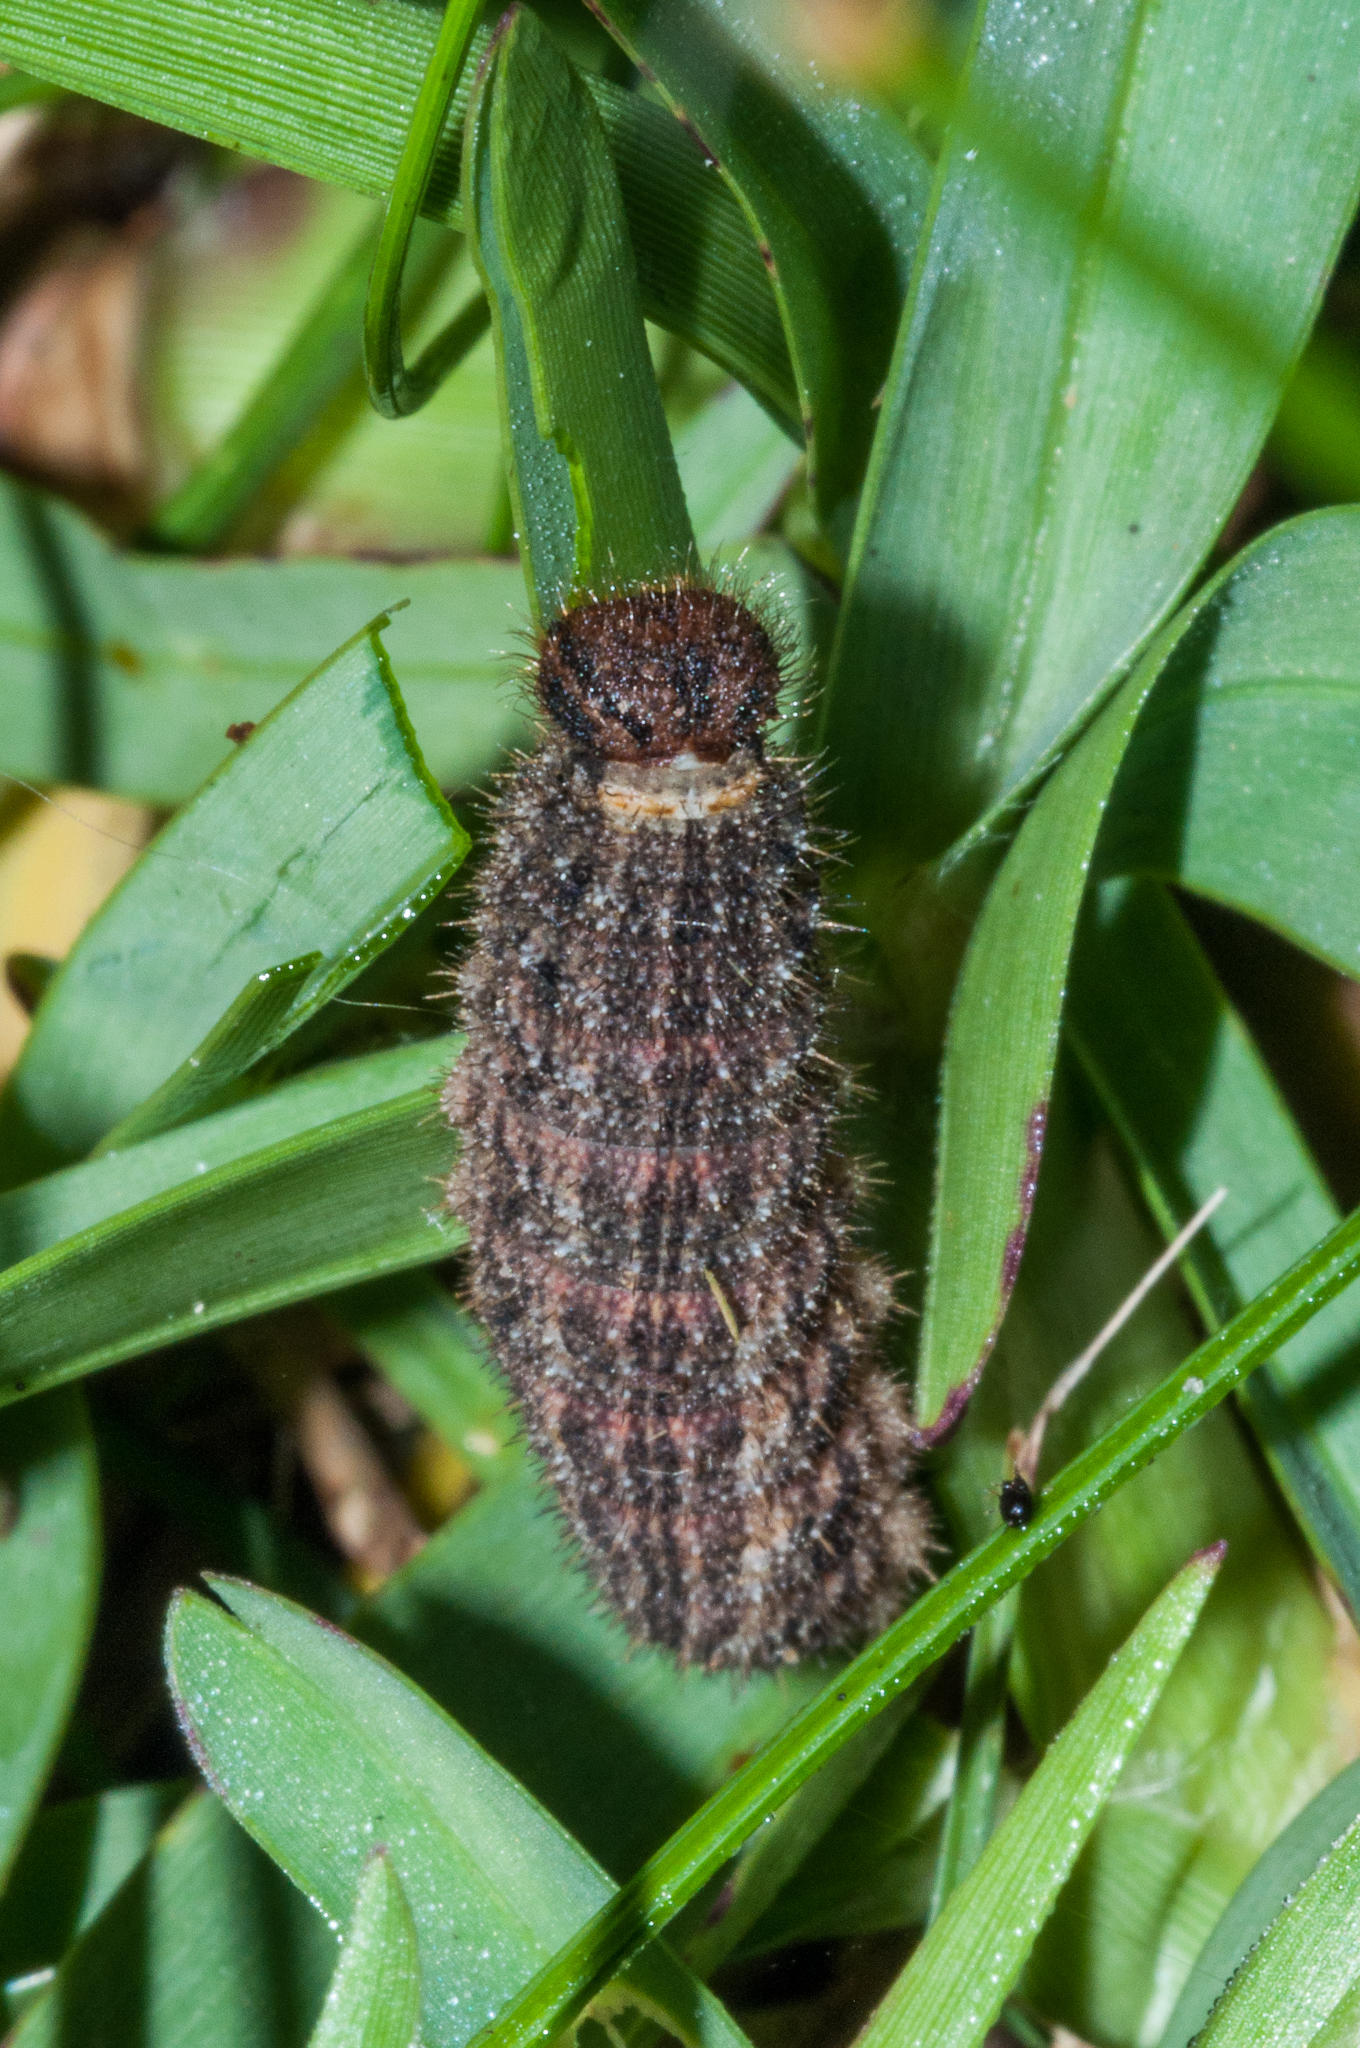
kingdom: Animalia
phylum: Arthropoda
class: Insecta
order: Lepidoptera
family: Nymphalidae
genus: Dira
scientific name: Dira clytus
